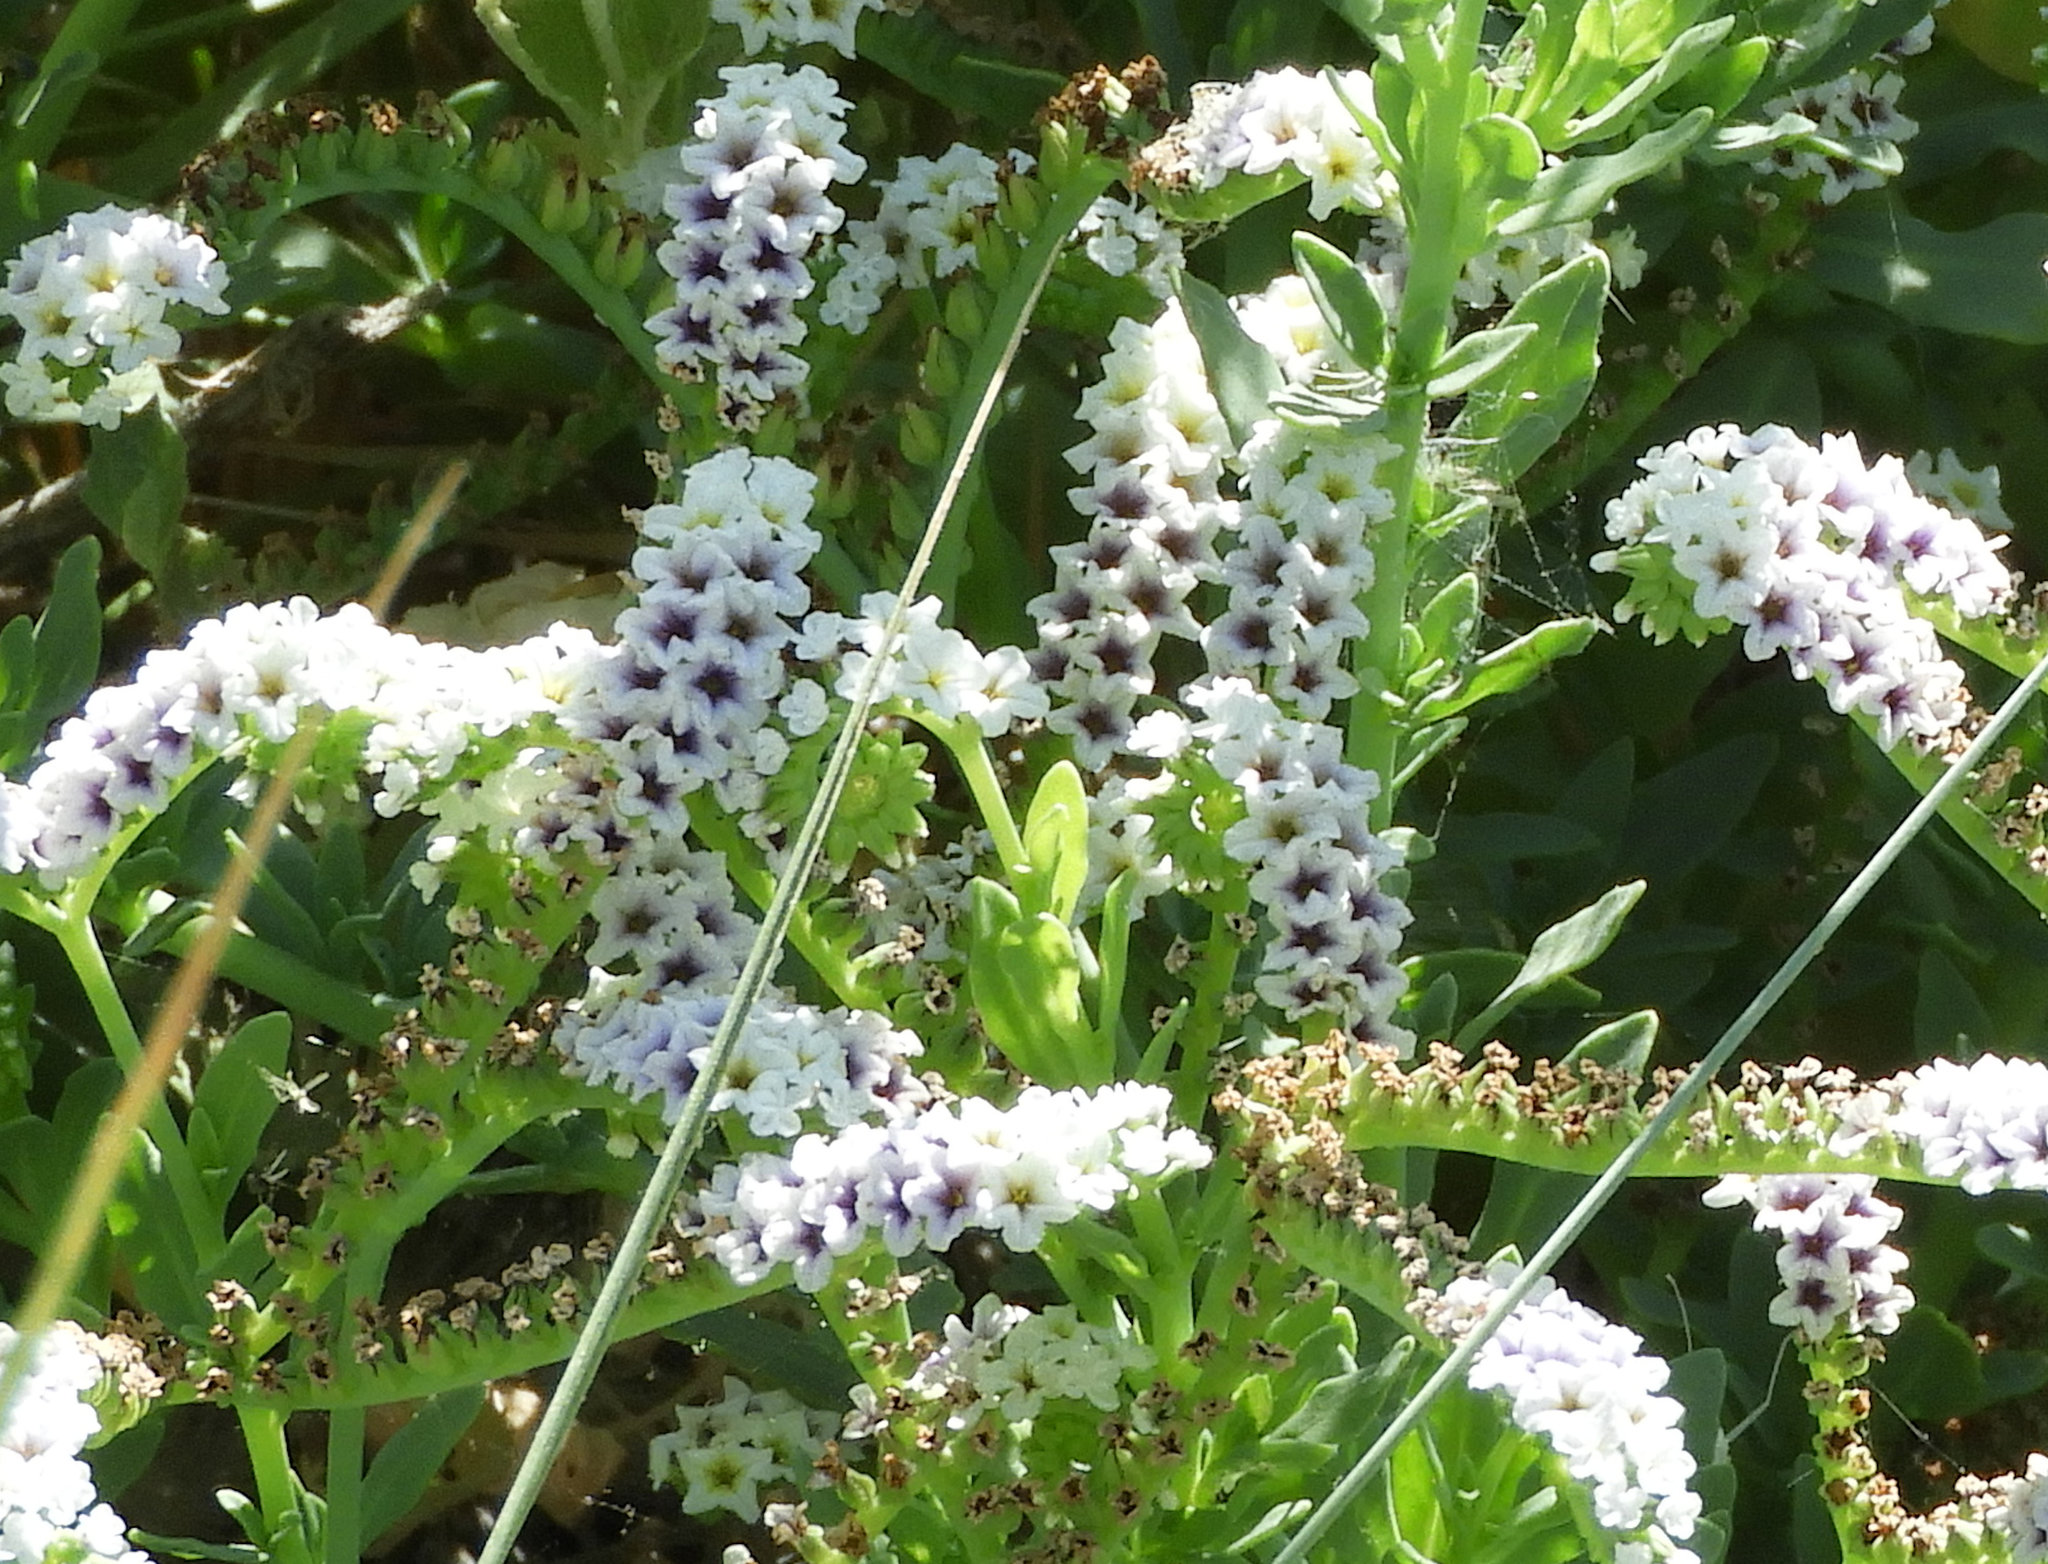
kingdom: Plantae
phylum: Tracheophyta
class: Magnoliopsida
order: Boraginales
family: Heliotropiaceae
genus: Heliotropium
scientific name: Heliotropium curassavicum
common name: Seaside heliotrope
